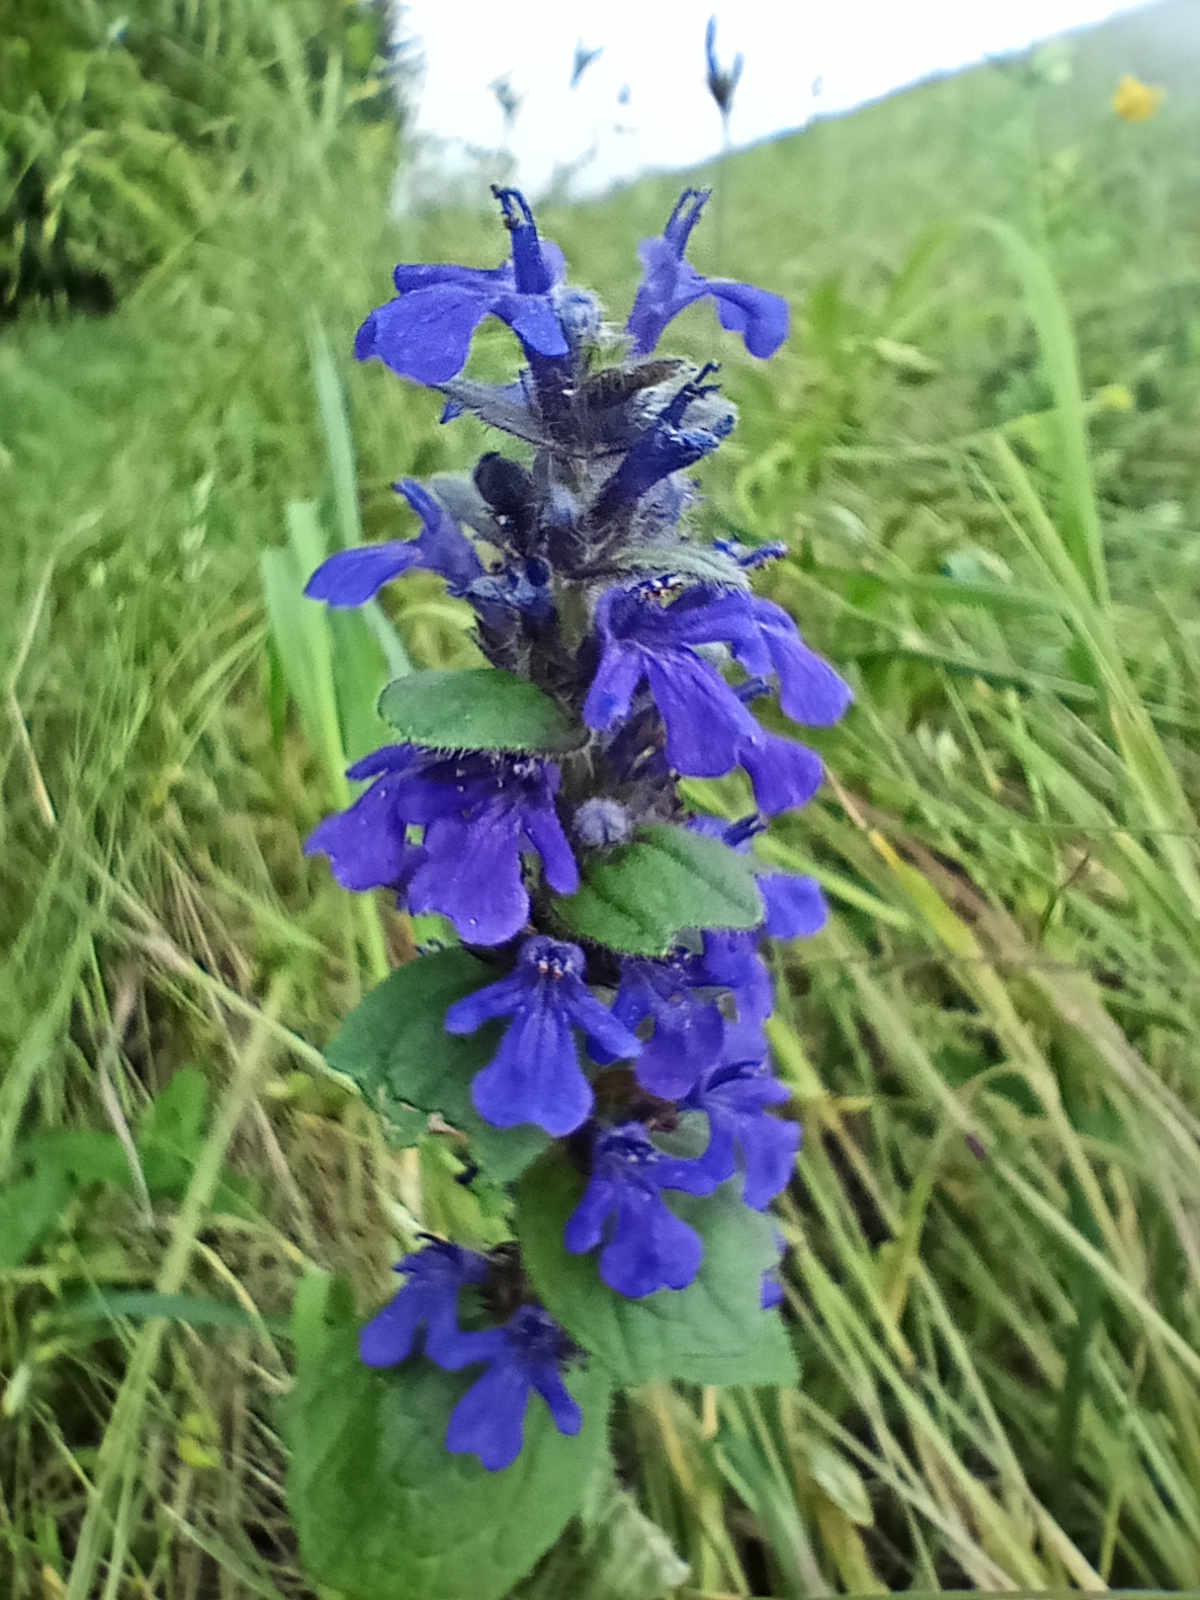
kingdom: Plantae
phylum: Tracheophyta
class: Magnoliopsida
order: Lamiales
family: Lamiaceae
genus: Ajuga
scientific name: Ajuga genevensis
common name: Blue bugle
